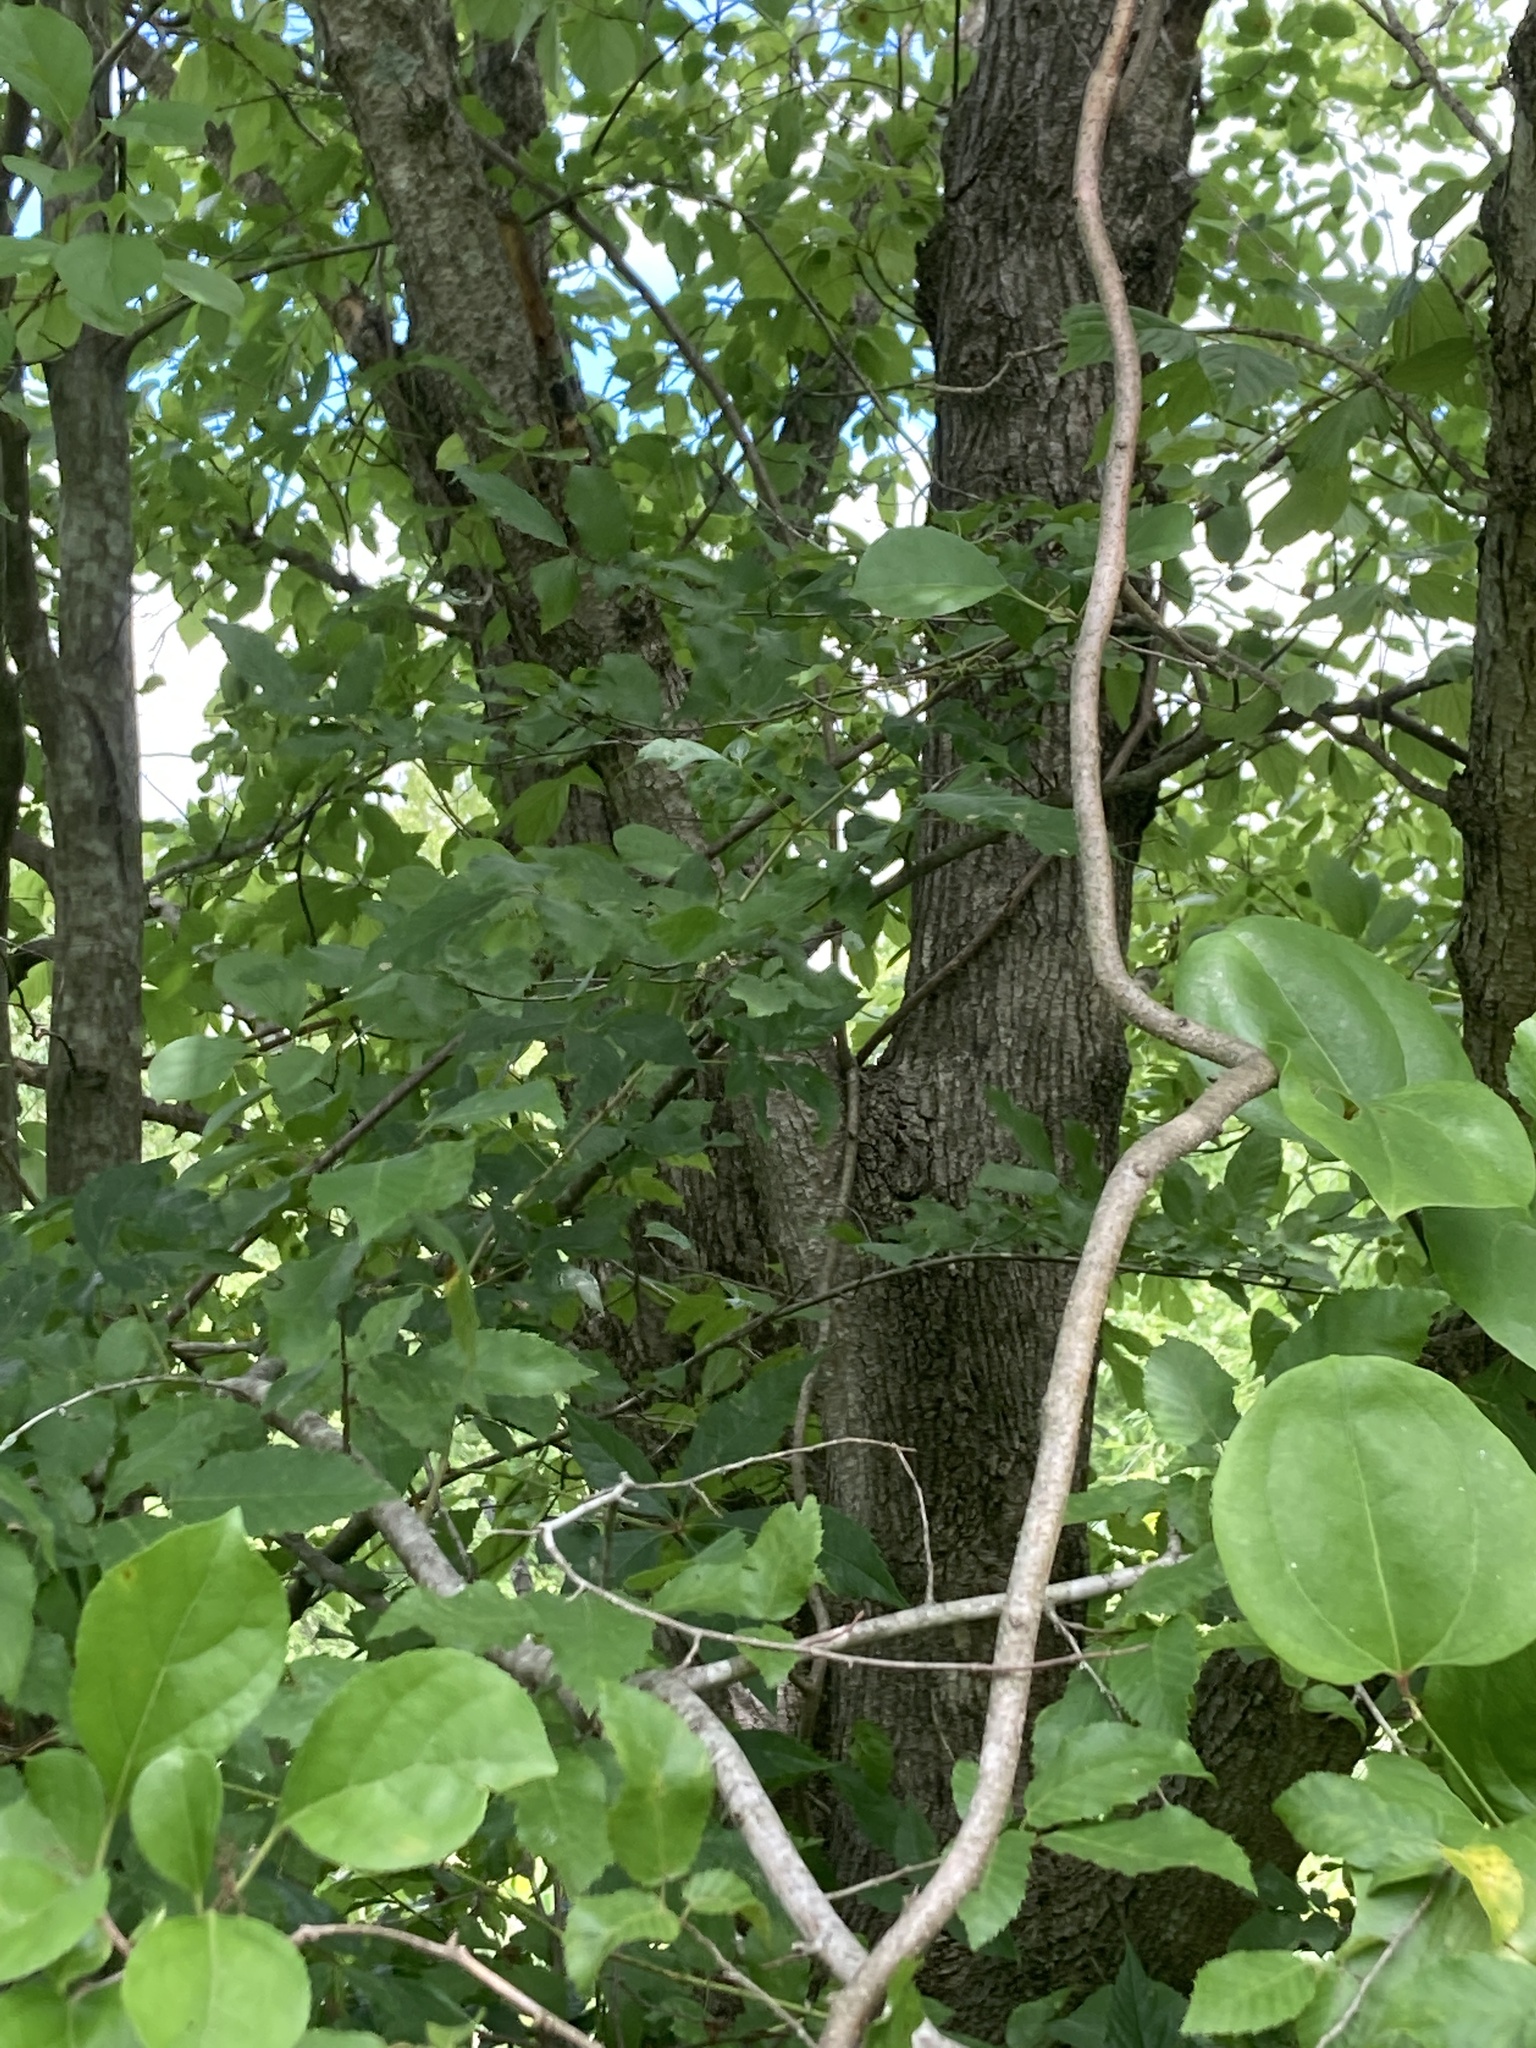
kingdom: Plantae
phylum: Tracheophyta
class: Magnoliopsida
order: Fagales
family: Betulaceae
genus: Carpinus
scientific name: Carpinus caroliniana
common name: American hornbeam
